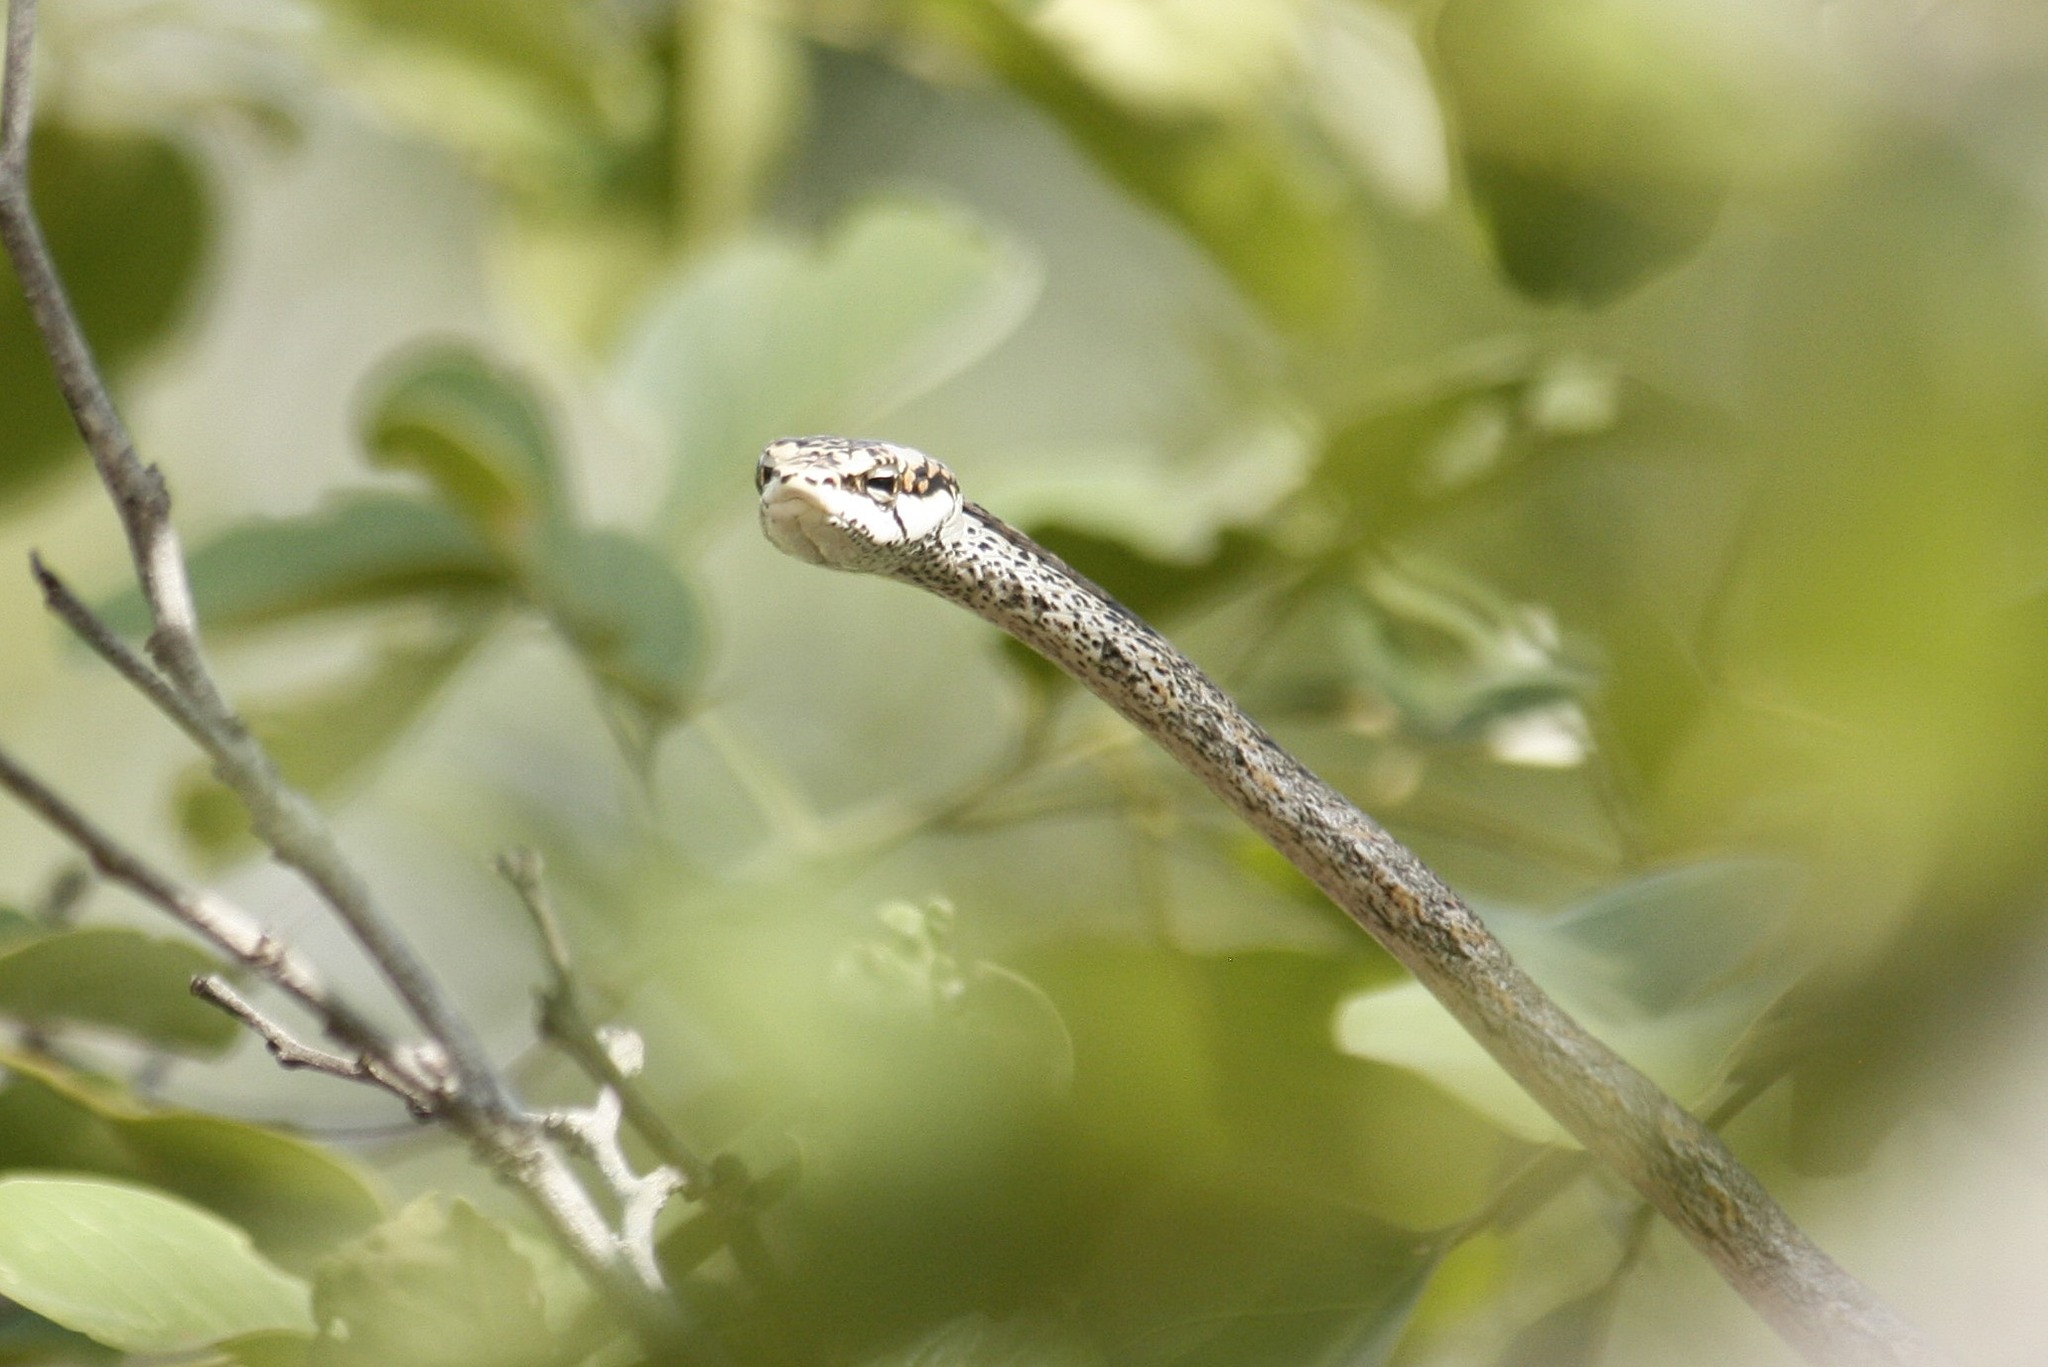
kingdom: Animalia
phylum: Chordata
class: Squamata
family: Colubridae
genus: Thelotornis
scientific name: Thelotornis capensis
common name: Savanna vine snake
